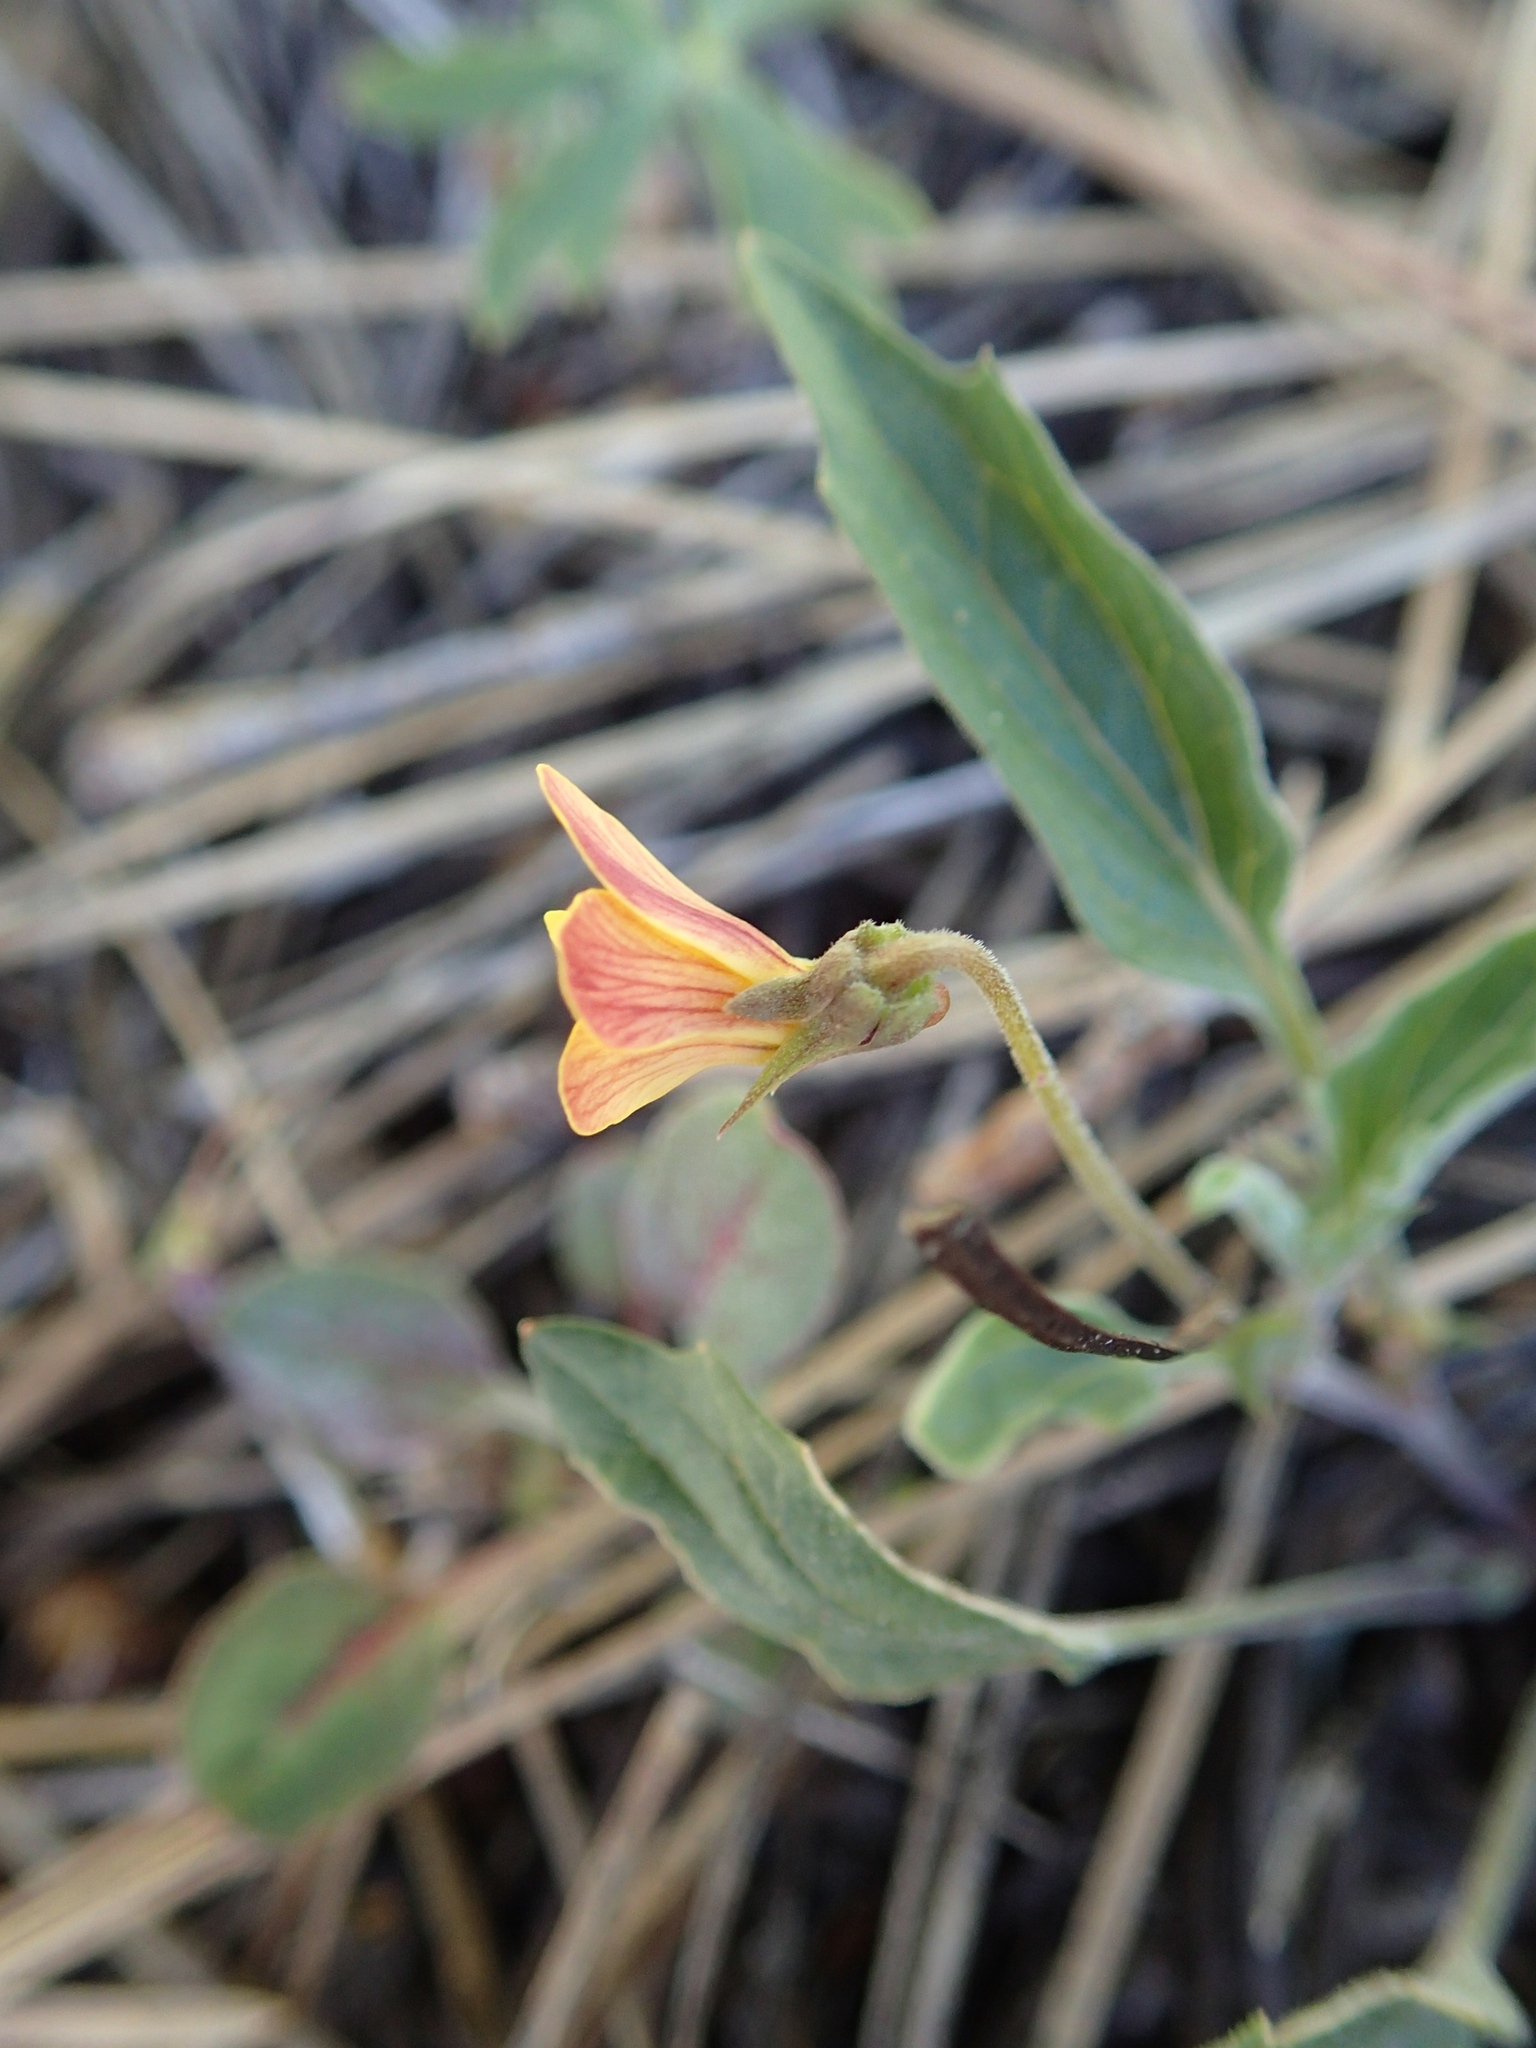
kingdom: Plantae
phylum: Tracheophyta
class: Magnoliopsida
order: Malpighiales
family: Violaceae
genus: Viola
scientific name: Viola pinetorum
